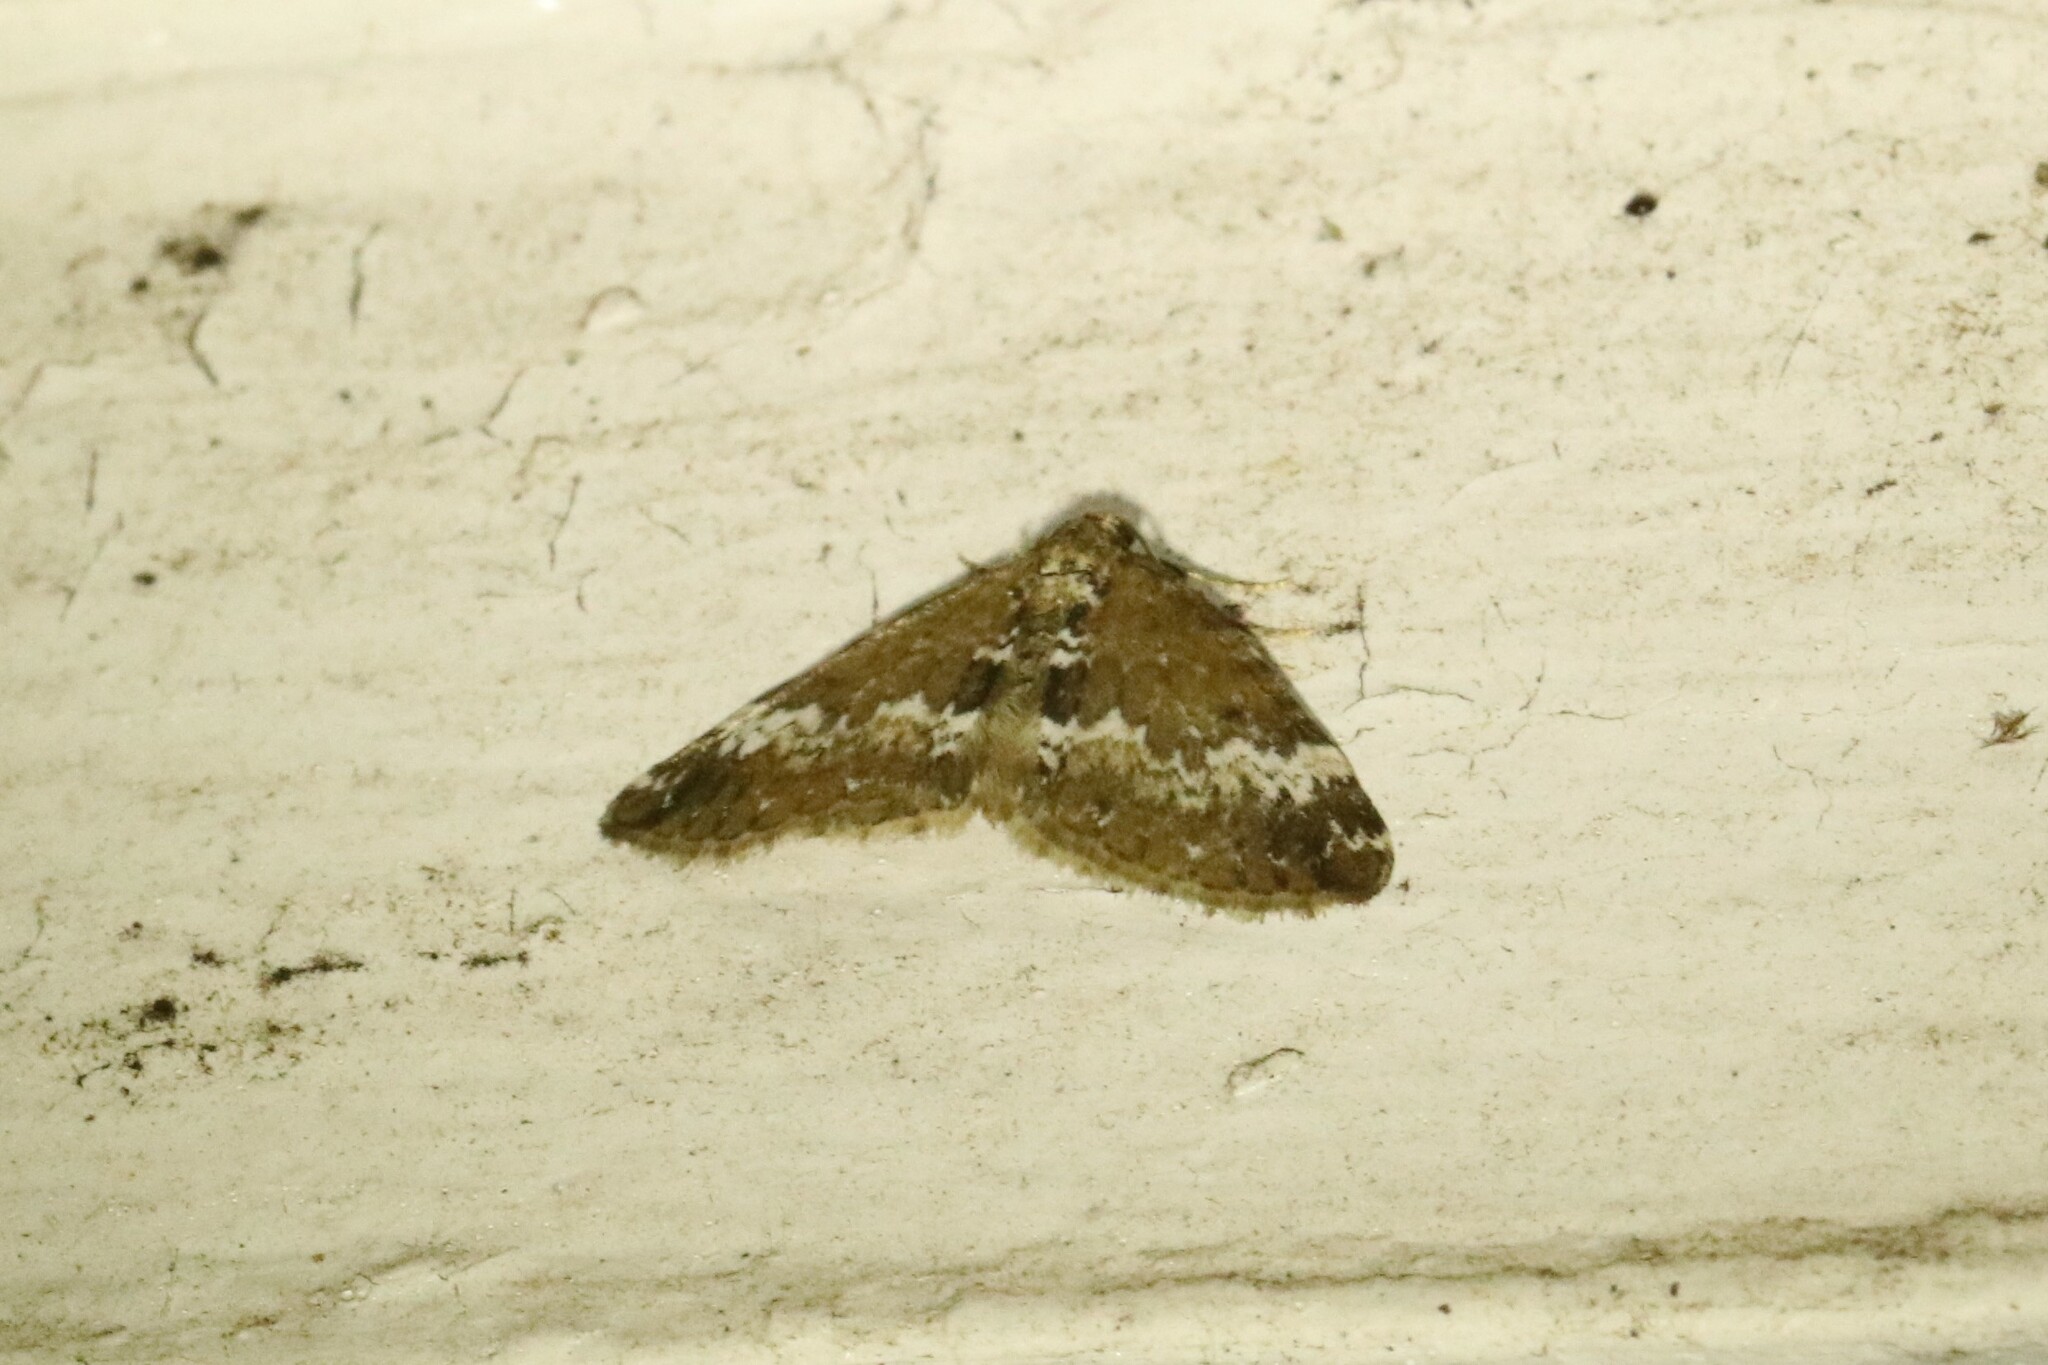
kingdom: Animalia
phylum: Arthropoda
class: Insecta
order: Lepidoptera
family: Geometridae
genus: Perizoma
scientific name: Perizoma alchemillata
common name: Small rivulet
